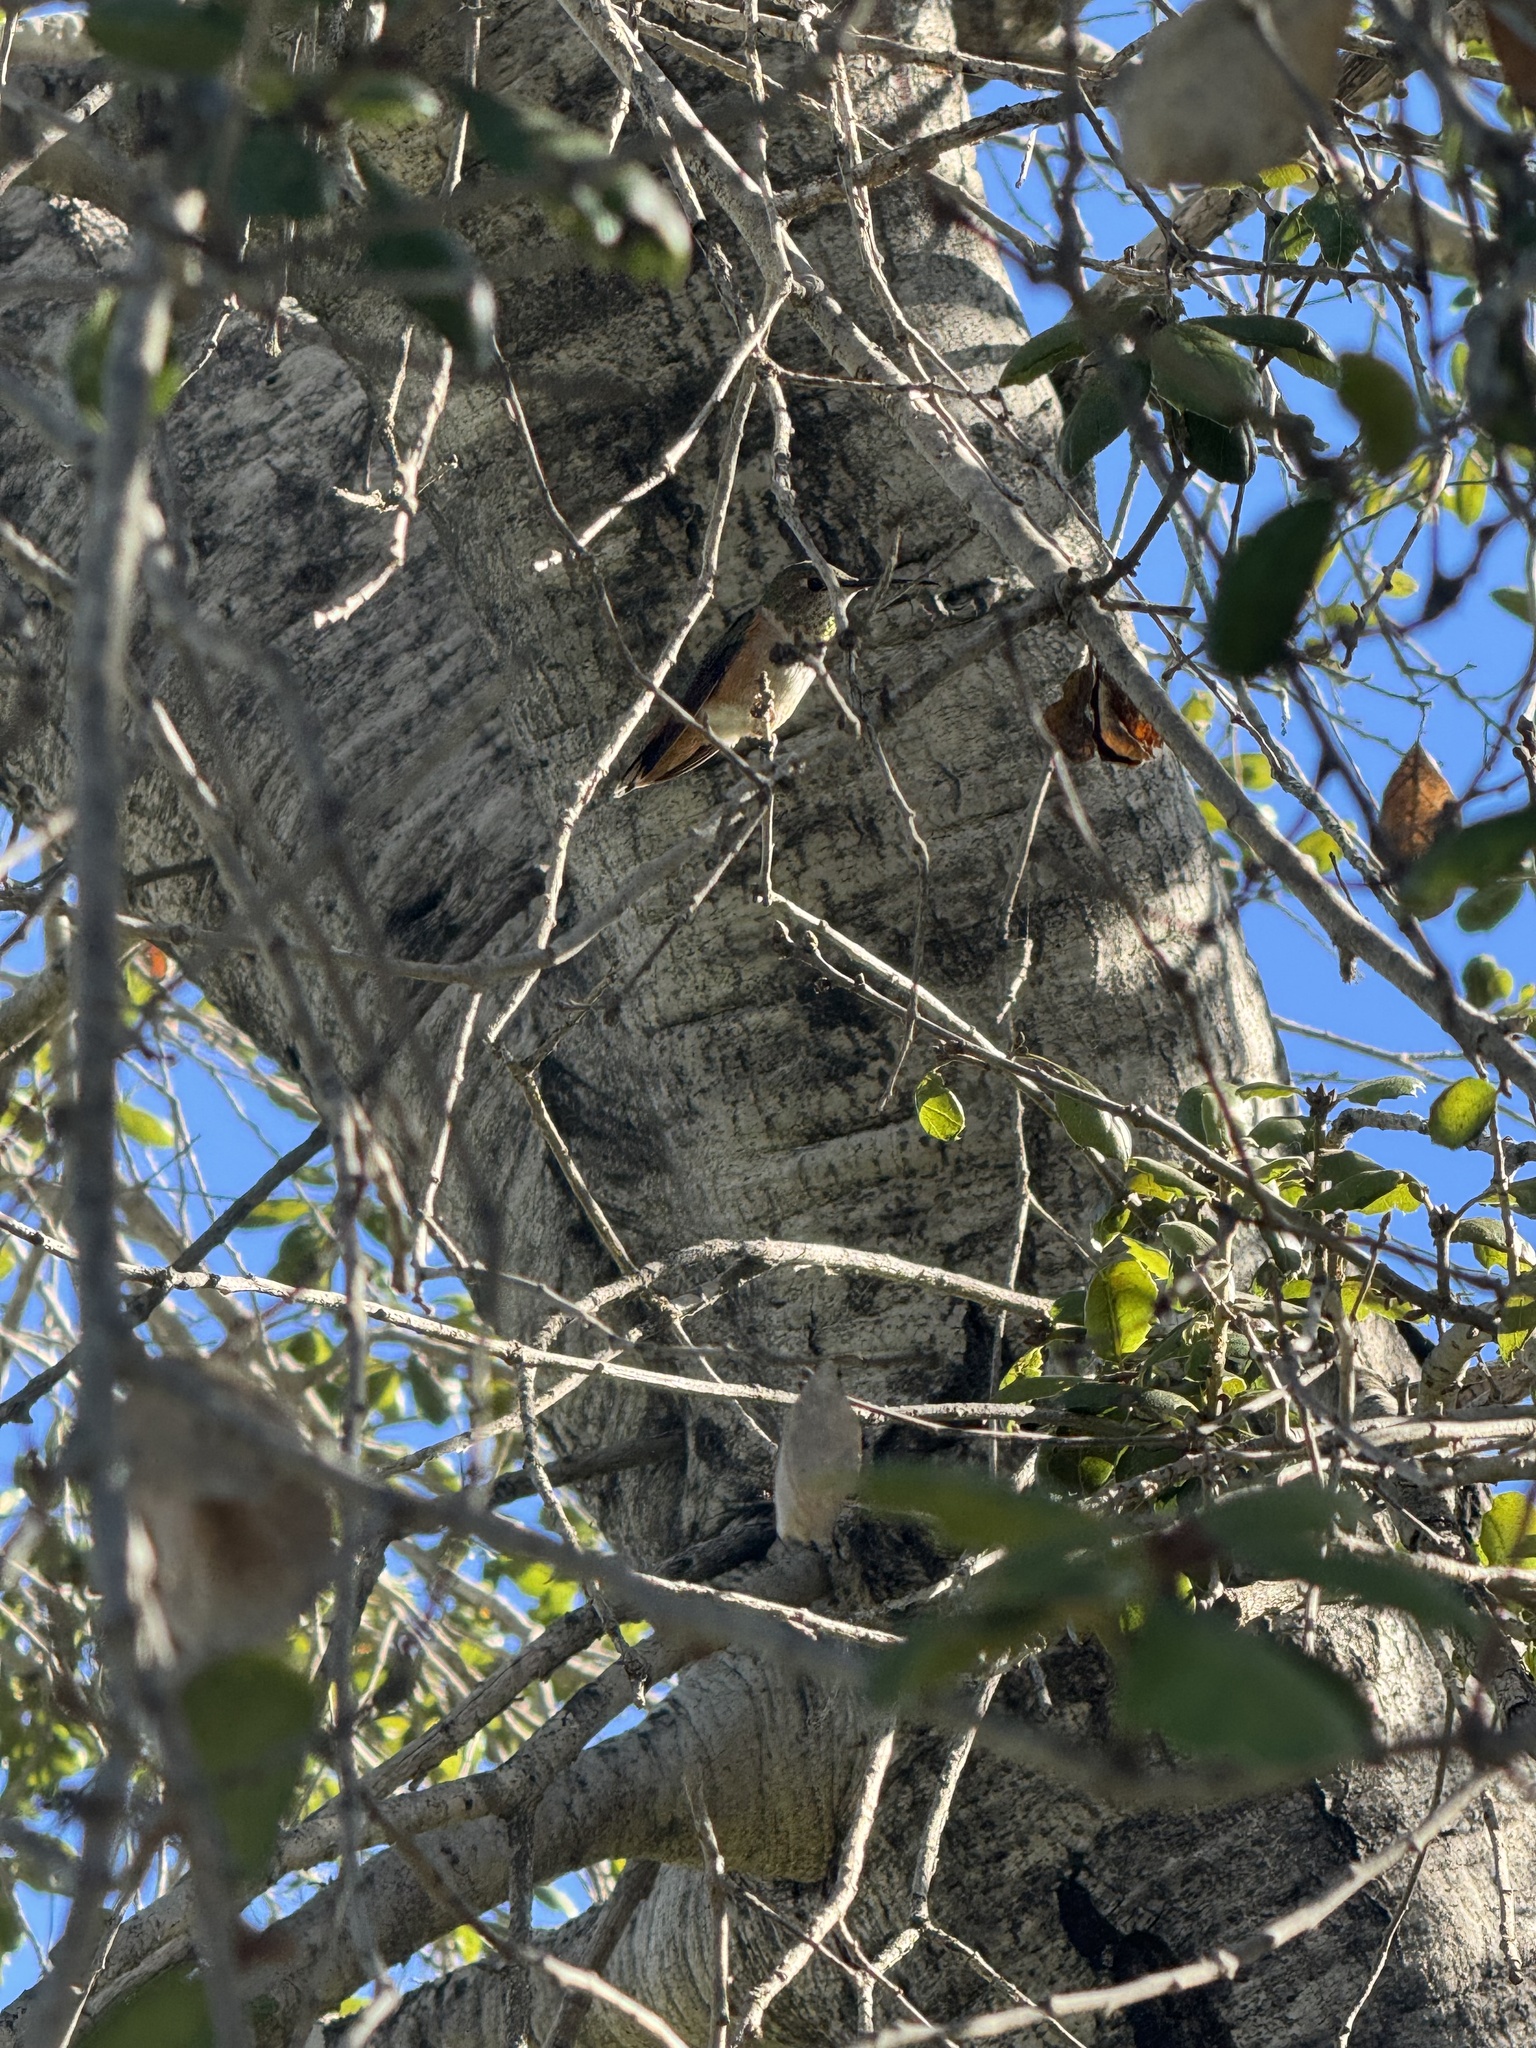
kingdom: Animalia
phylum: Chordata
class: Aves
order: Apodiformes
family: Trochilidae
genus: Calypte
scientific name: Calypte anna
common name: Anna's hummingbird
